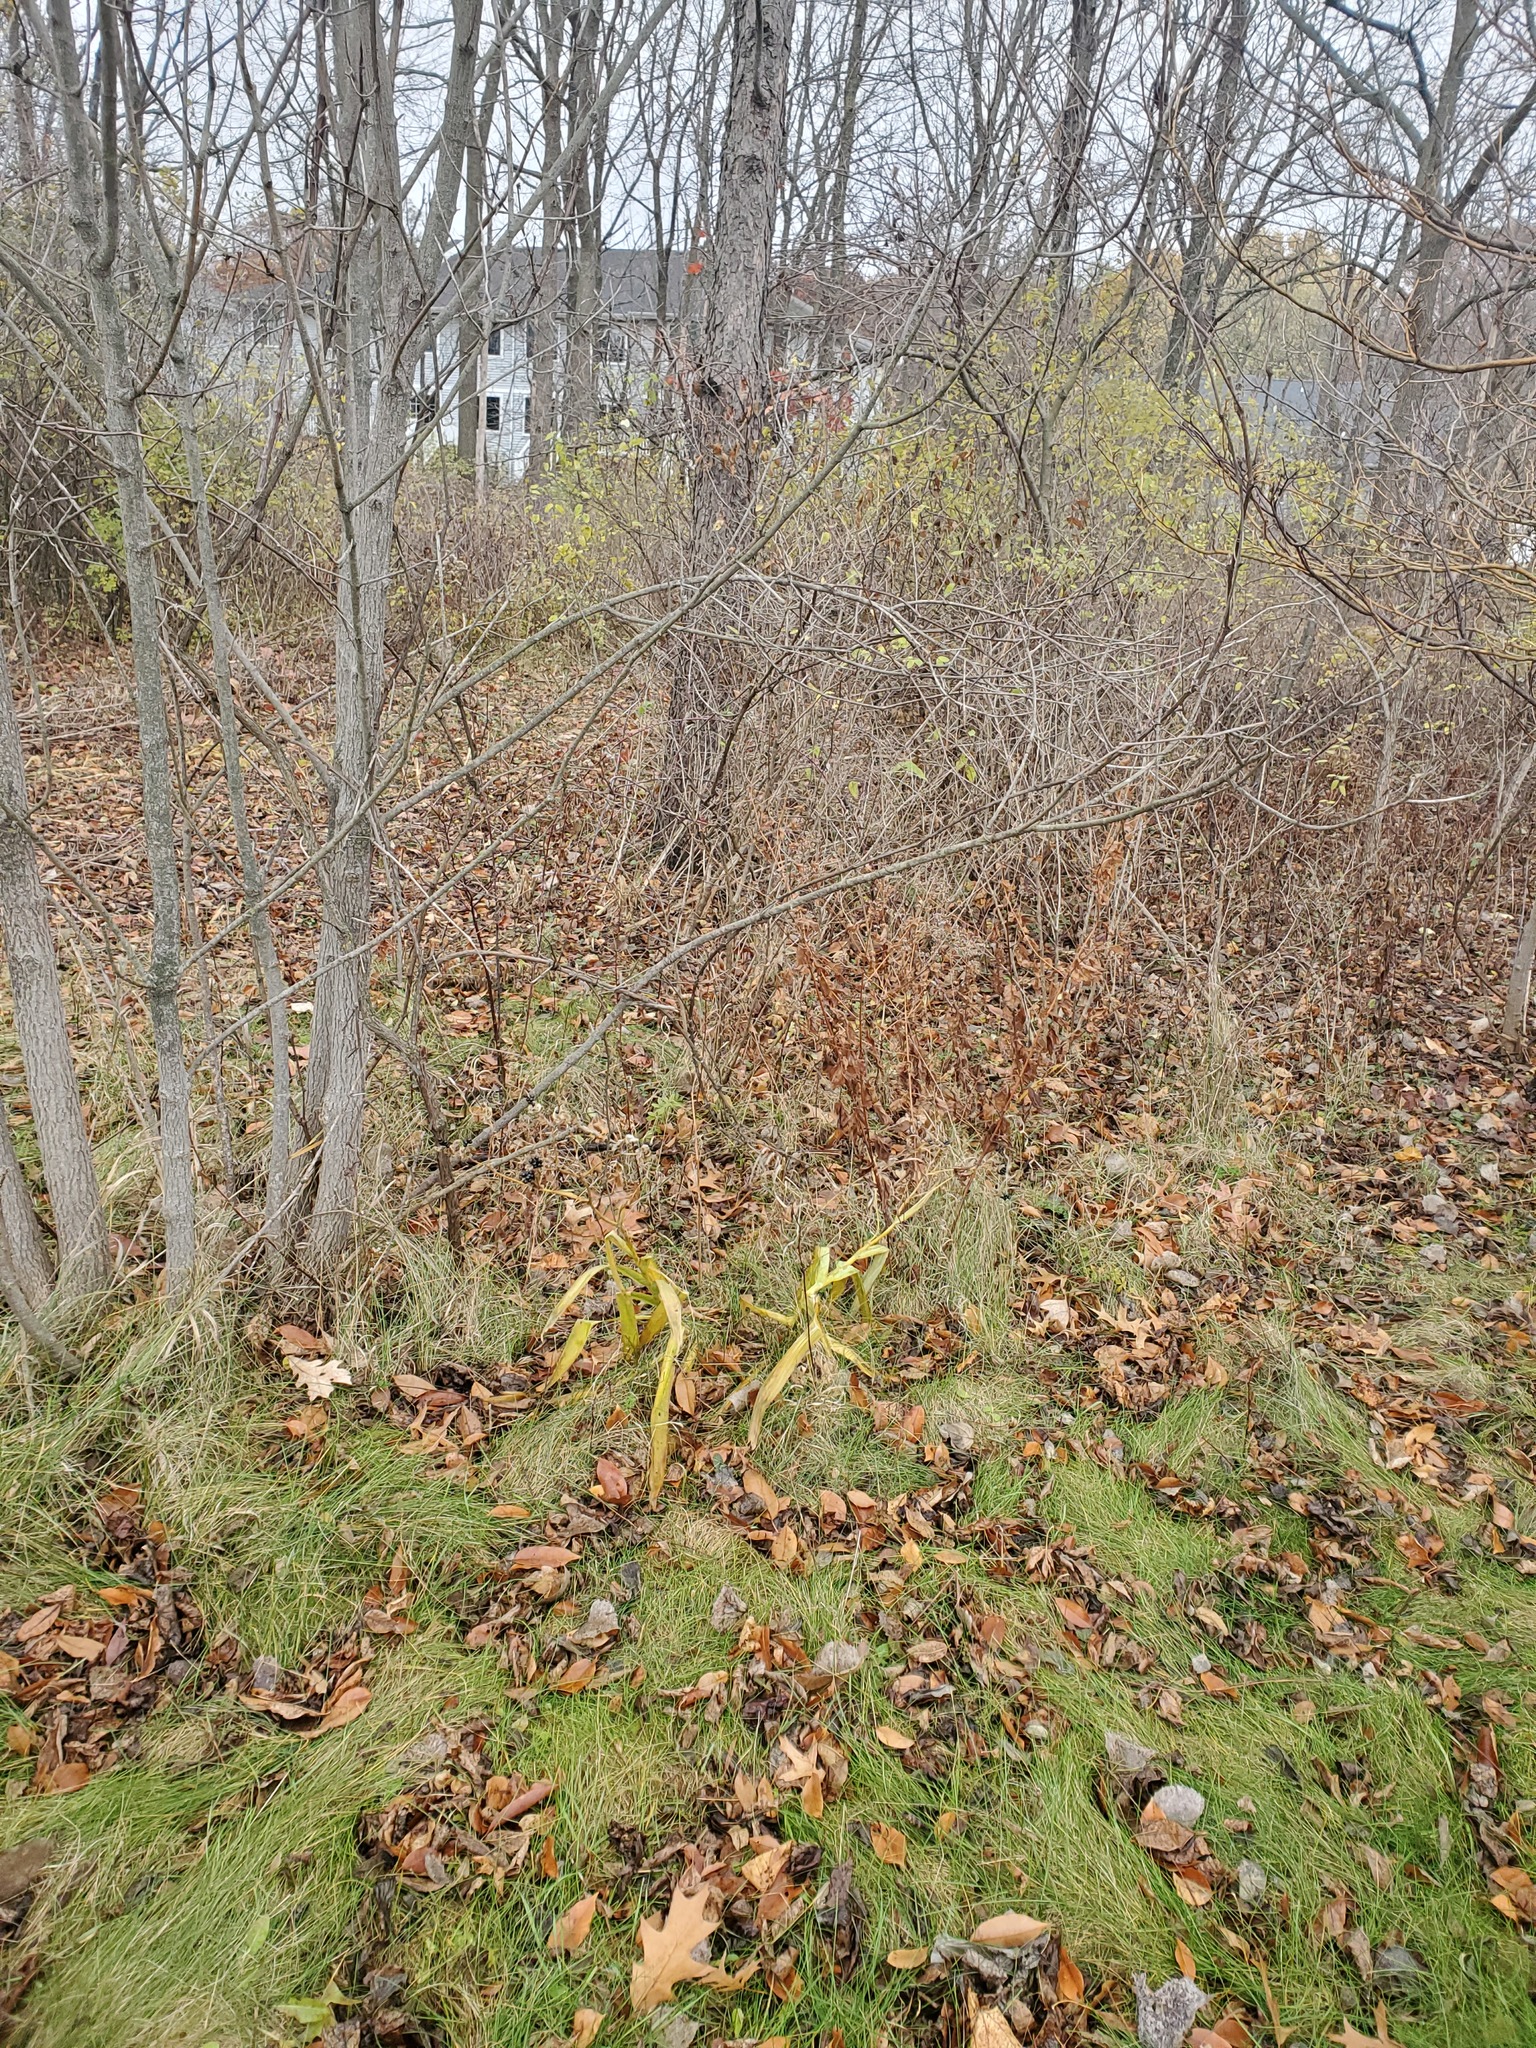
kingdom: Plantae
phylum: Tracheophyta
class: Liliopsida
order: Asparagales
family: Iridaceae
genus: Iris
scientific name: Iris domestica
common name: Belamcanda
